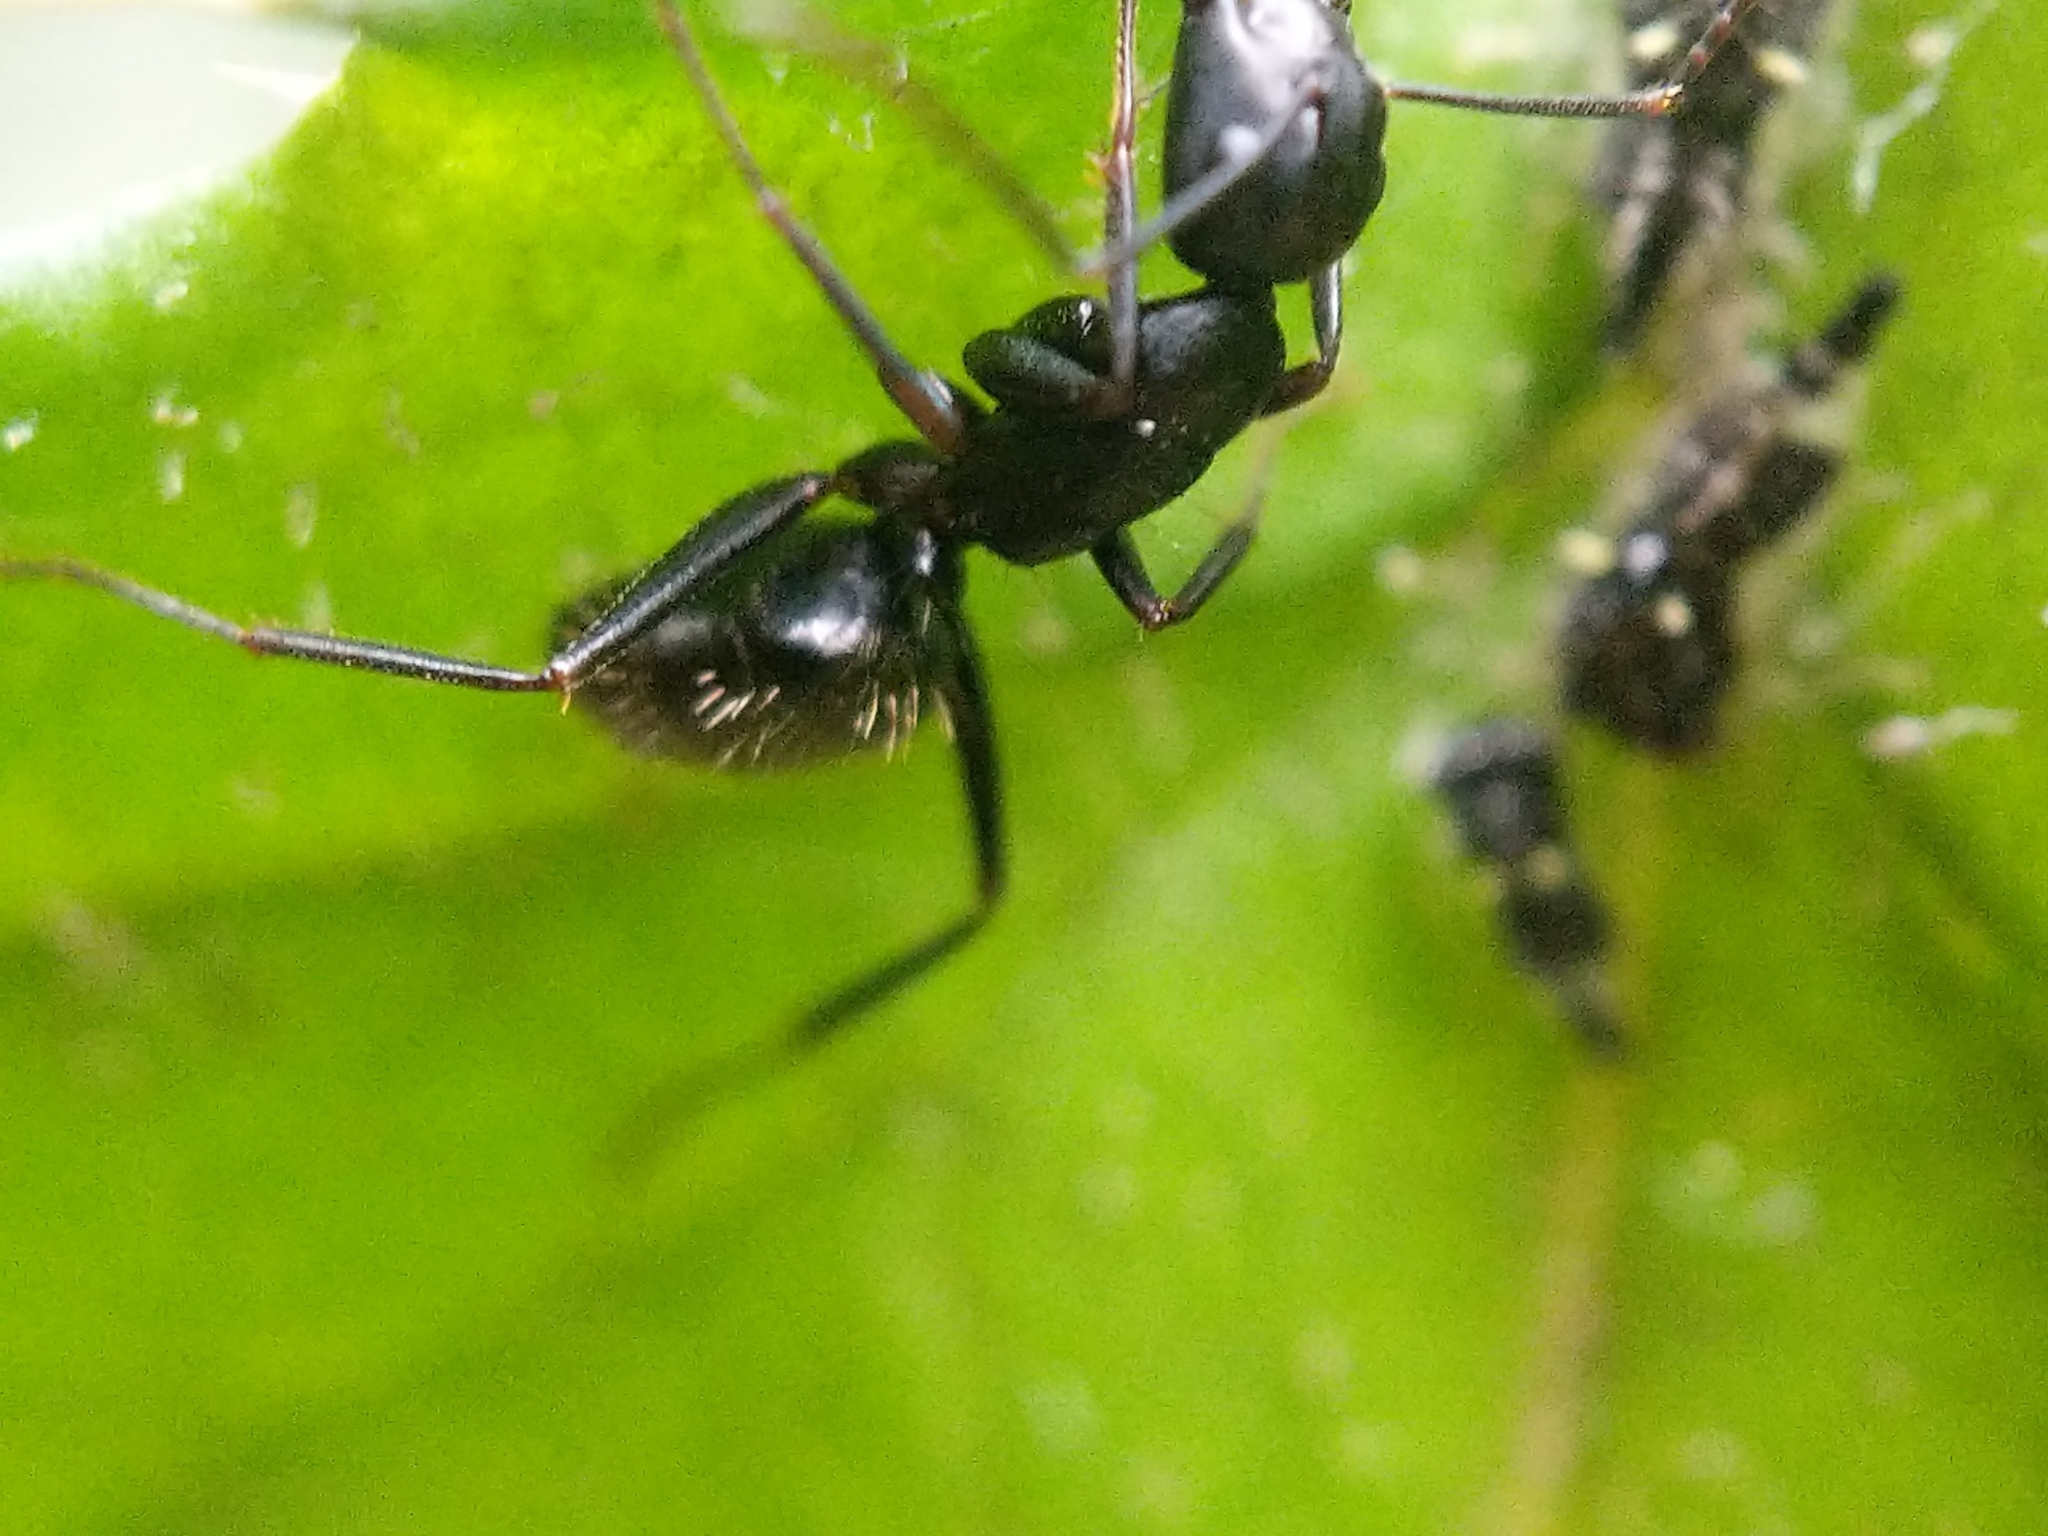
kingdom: Animalia
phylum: Arthropoda
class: Insecta
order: Hymenoptera
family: Formicidae
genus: Camponotus
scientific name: Camponotus pennsylvanicus
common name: Black carpenter ant
